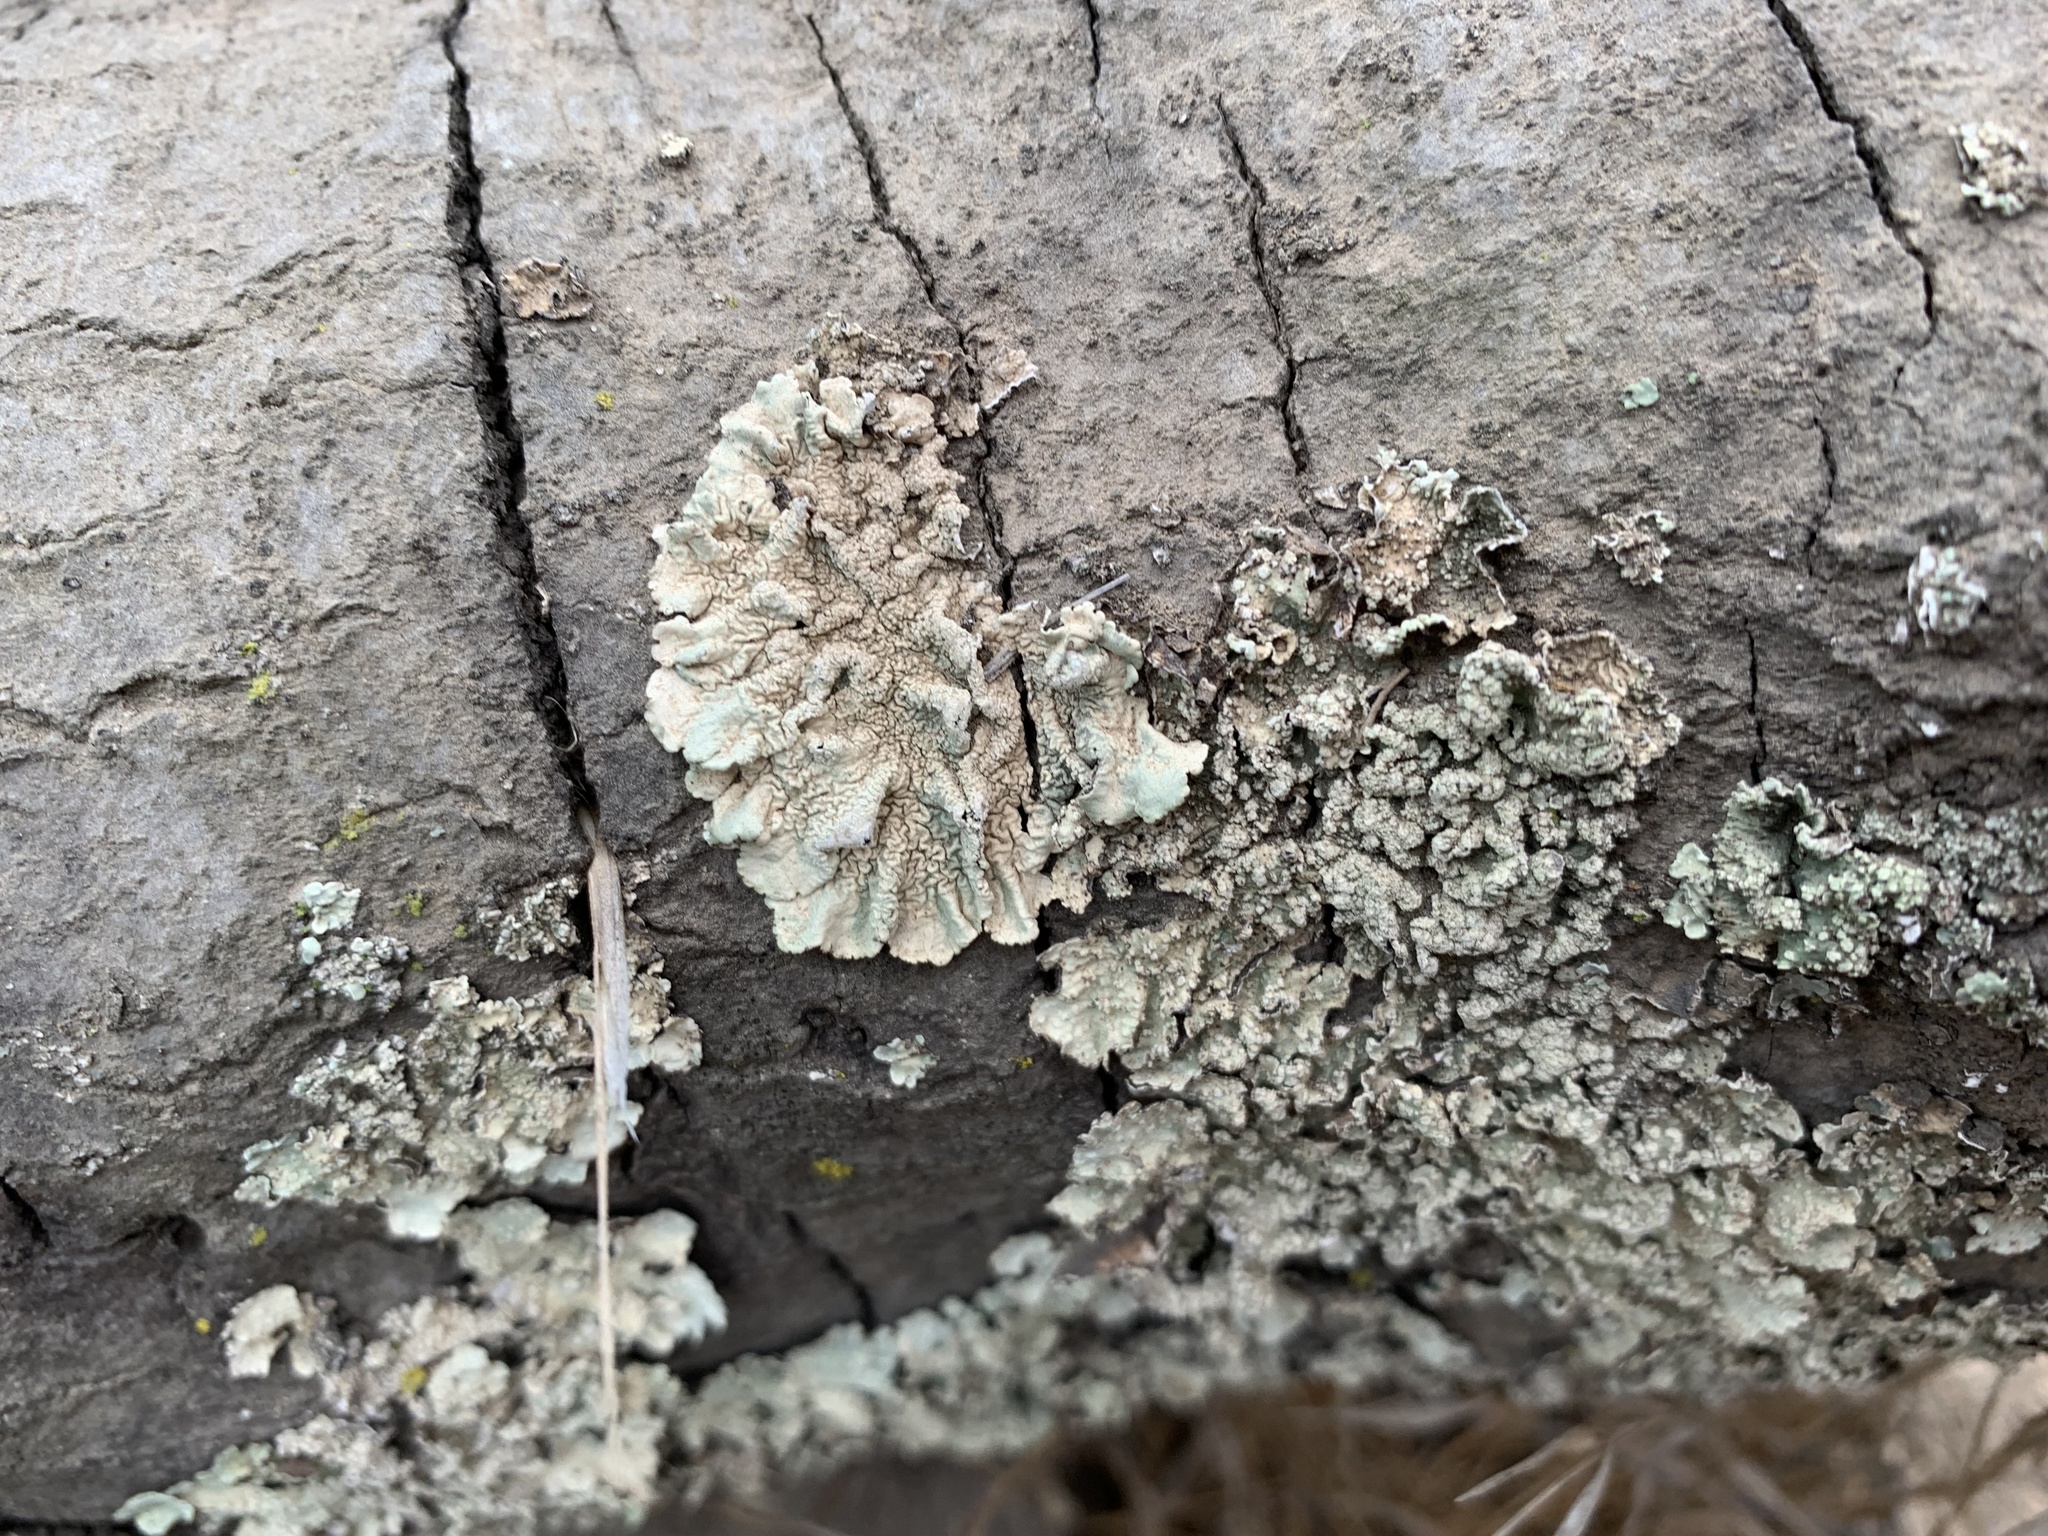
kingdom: Fungi
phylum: Ascomycota
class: Lecanoromycetes
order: Lecanorales
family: Parmeliaceae
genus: Flavoparmelia
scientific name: Flavoparmelia caperata
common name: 40-mile per hour lichen
